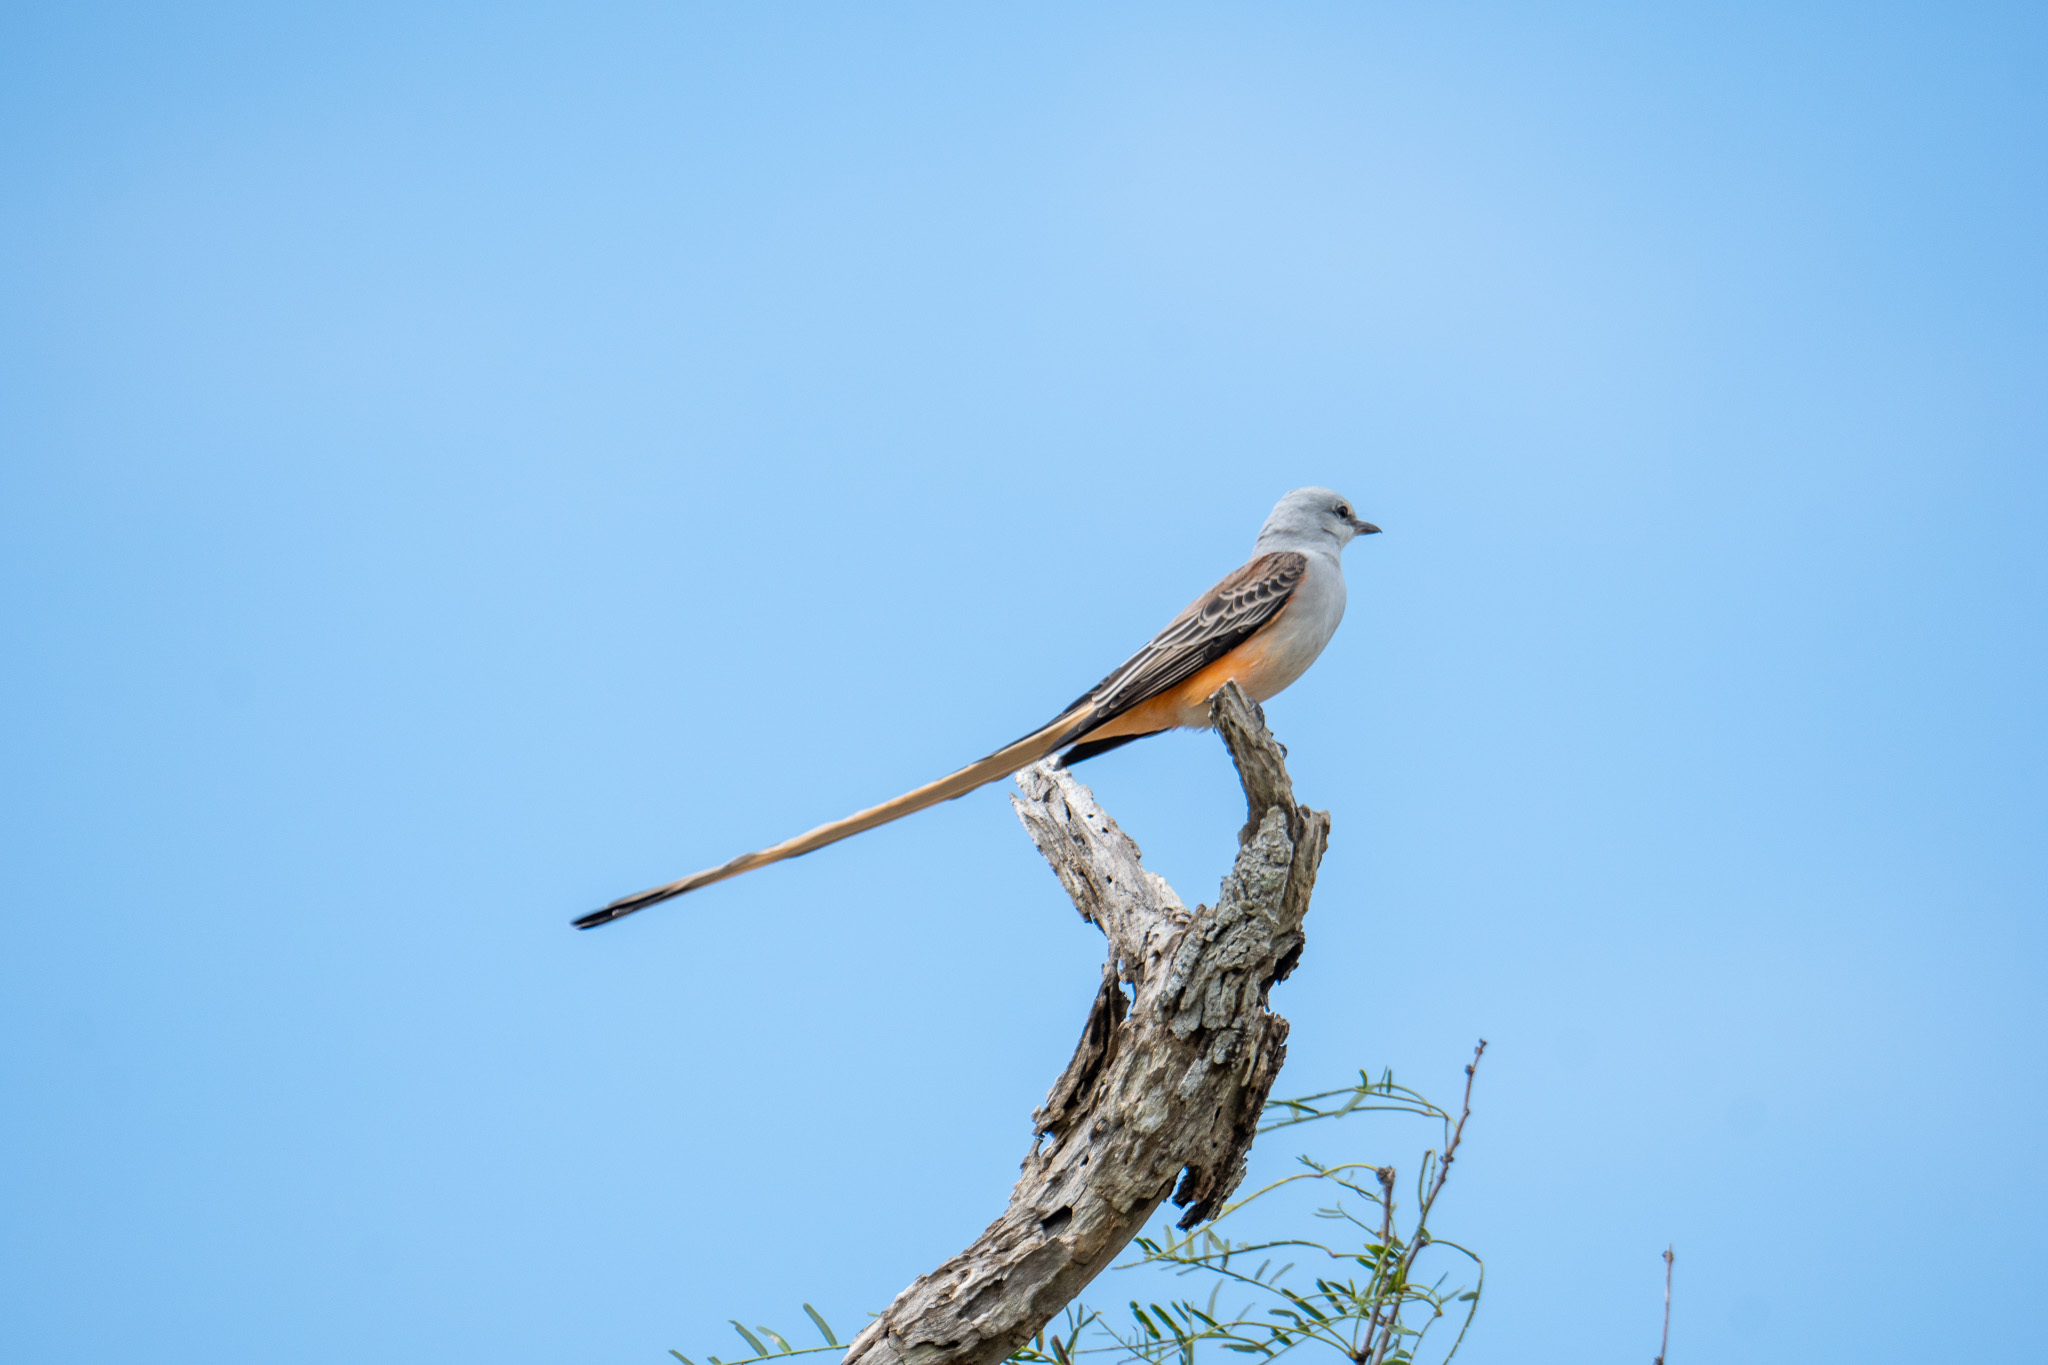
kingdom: Animalia
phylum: Chordata
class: Aves
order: Passeriformes
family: Tyrannidae
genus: Tyrannus
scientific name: Tyrannus forficatus
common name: Scissor-tailed flycatcher
